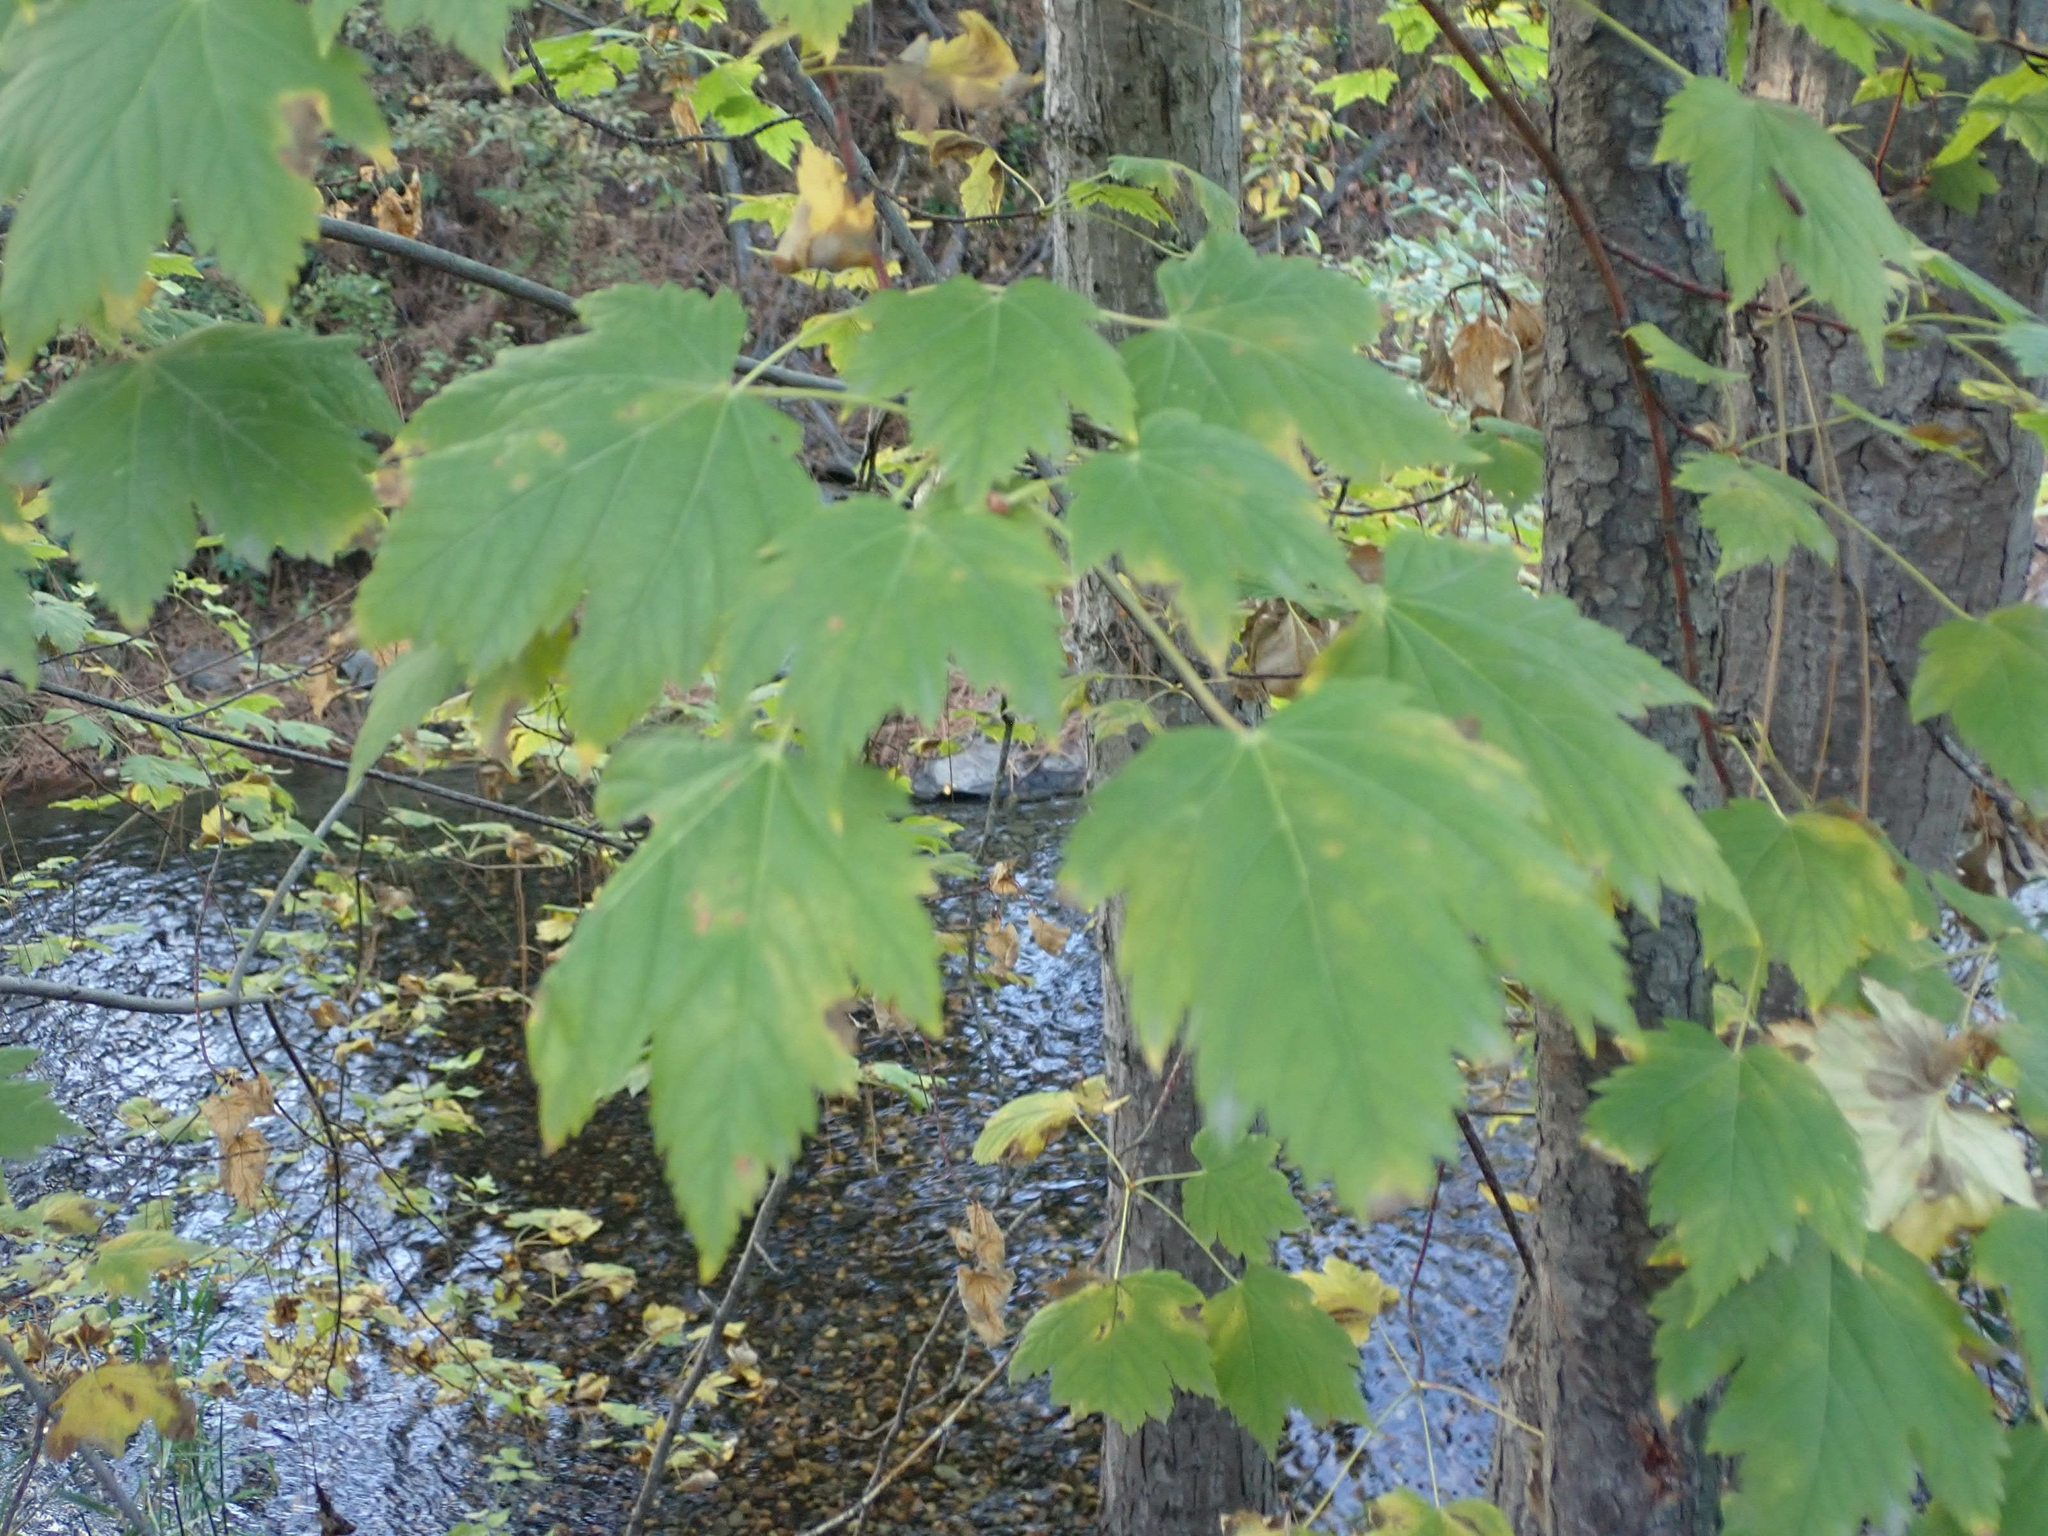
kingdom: Plantae
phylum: Tracheophyta
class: Magnoliopsida
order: Sapindales
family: Sapindaceae
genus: Acer
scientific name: Acer glabrum
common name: Rocky mountain maple
